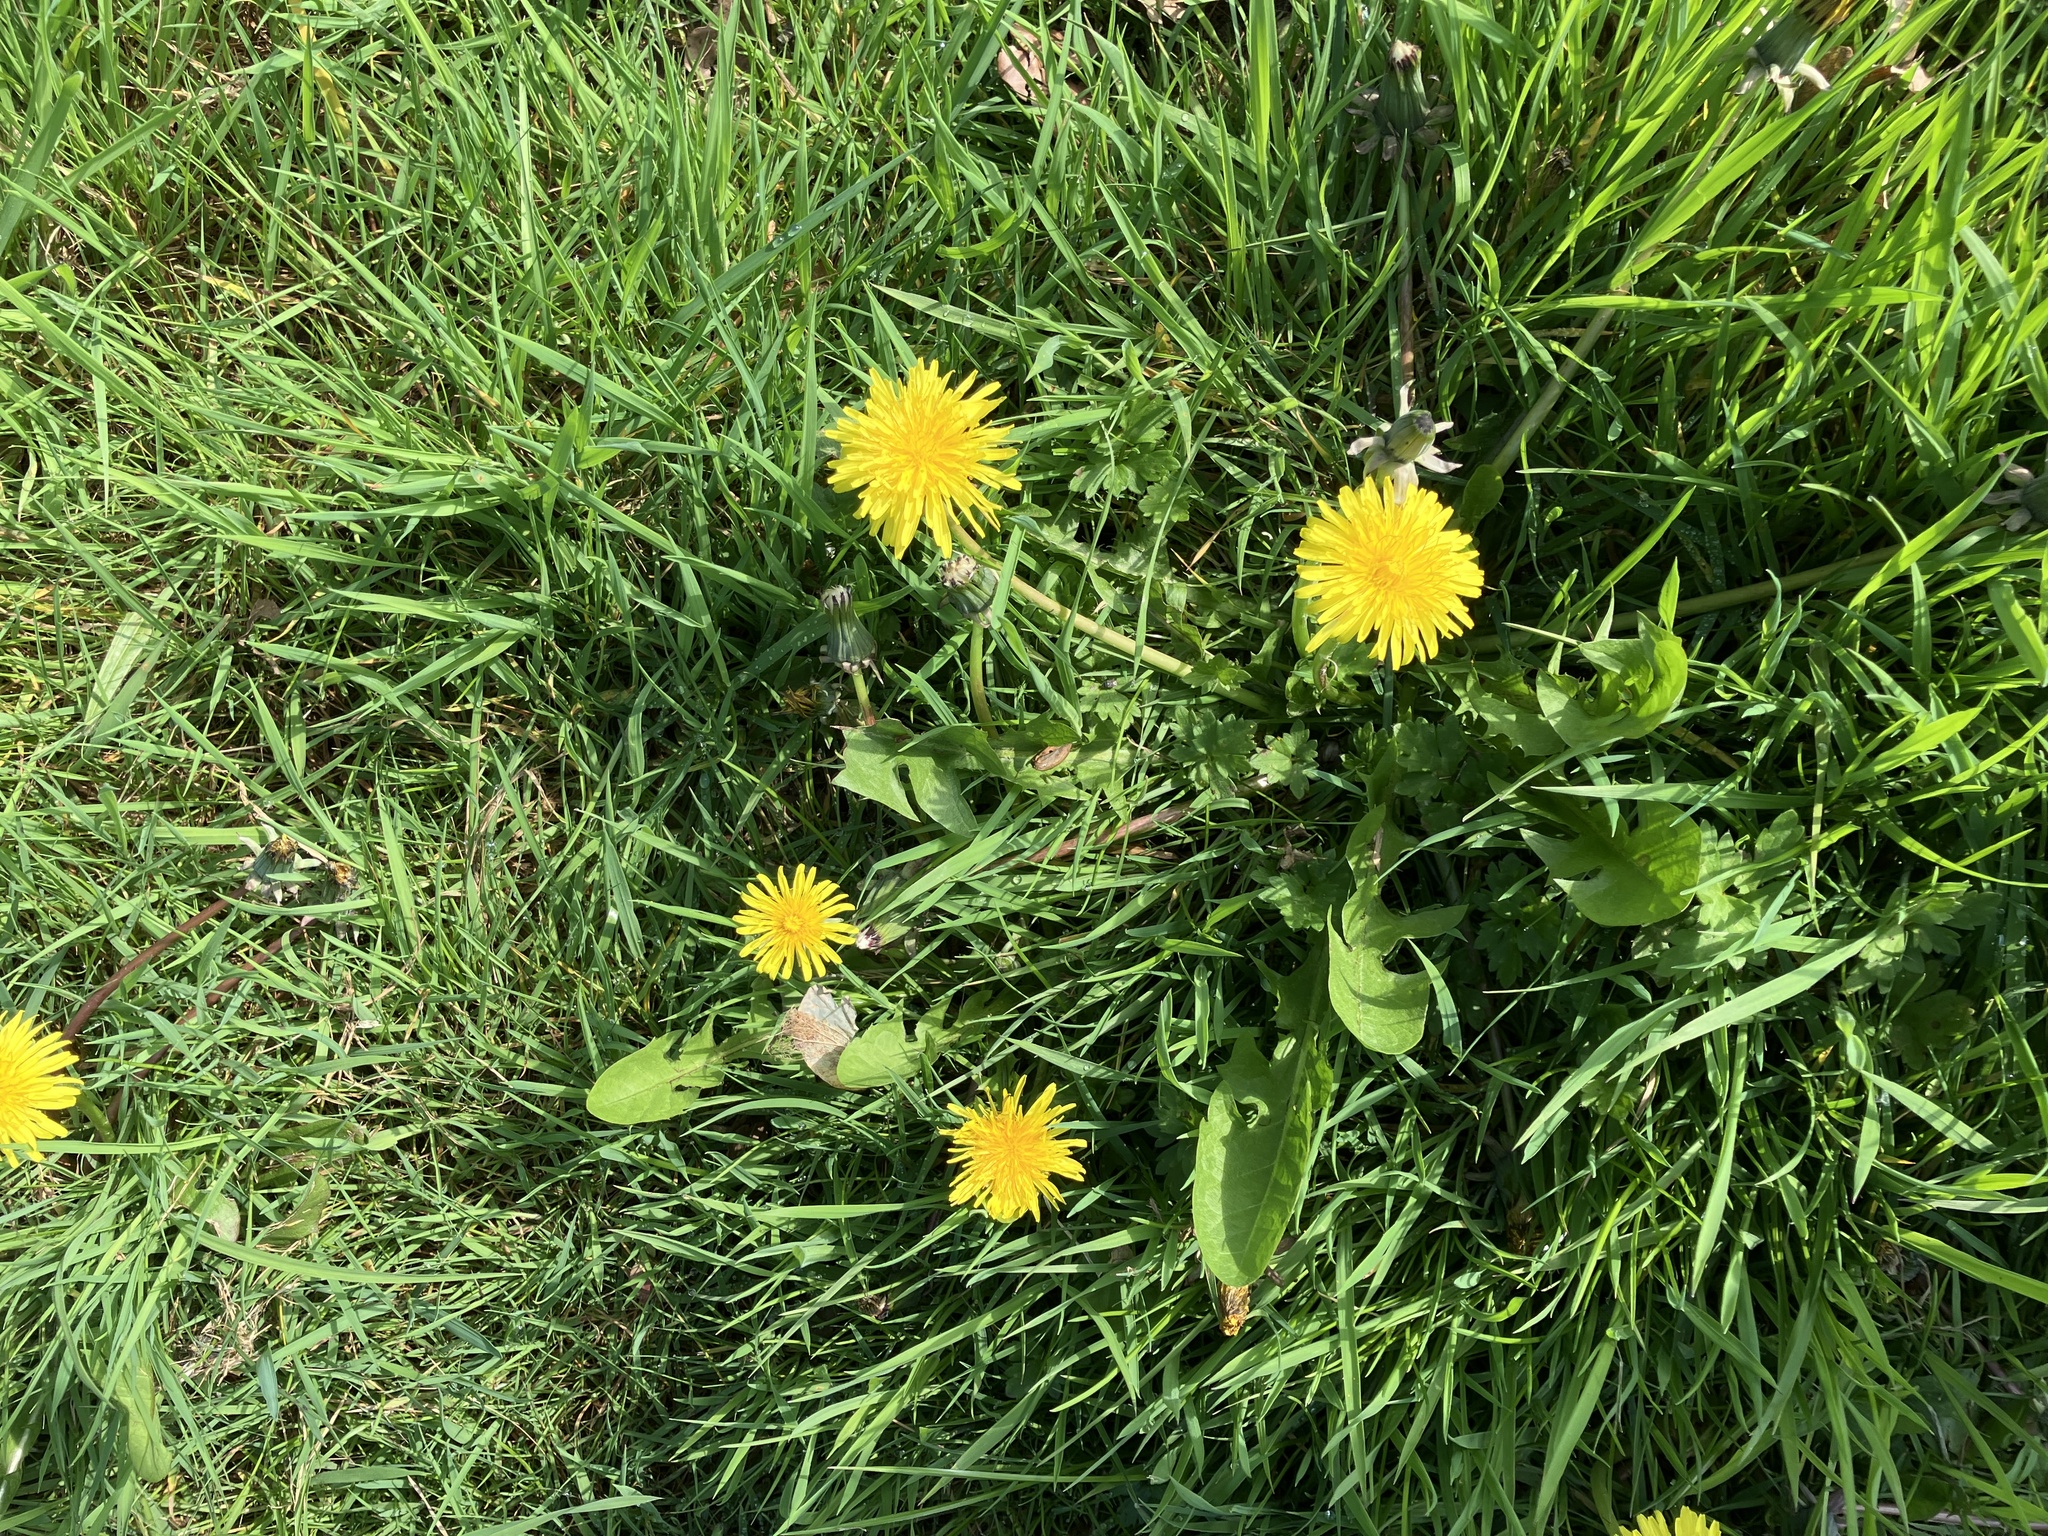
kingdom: Plantae
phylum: Tracheophyta
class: Magnoliopsida
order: Asterales
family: Asteraceae
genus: Taraxacum
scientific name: Taraxacum officinale
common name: Common dandelion
